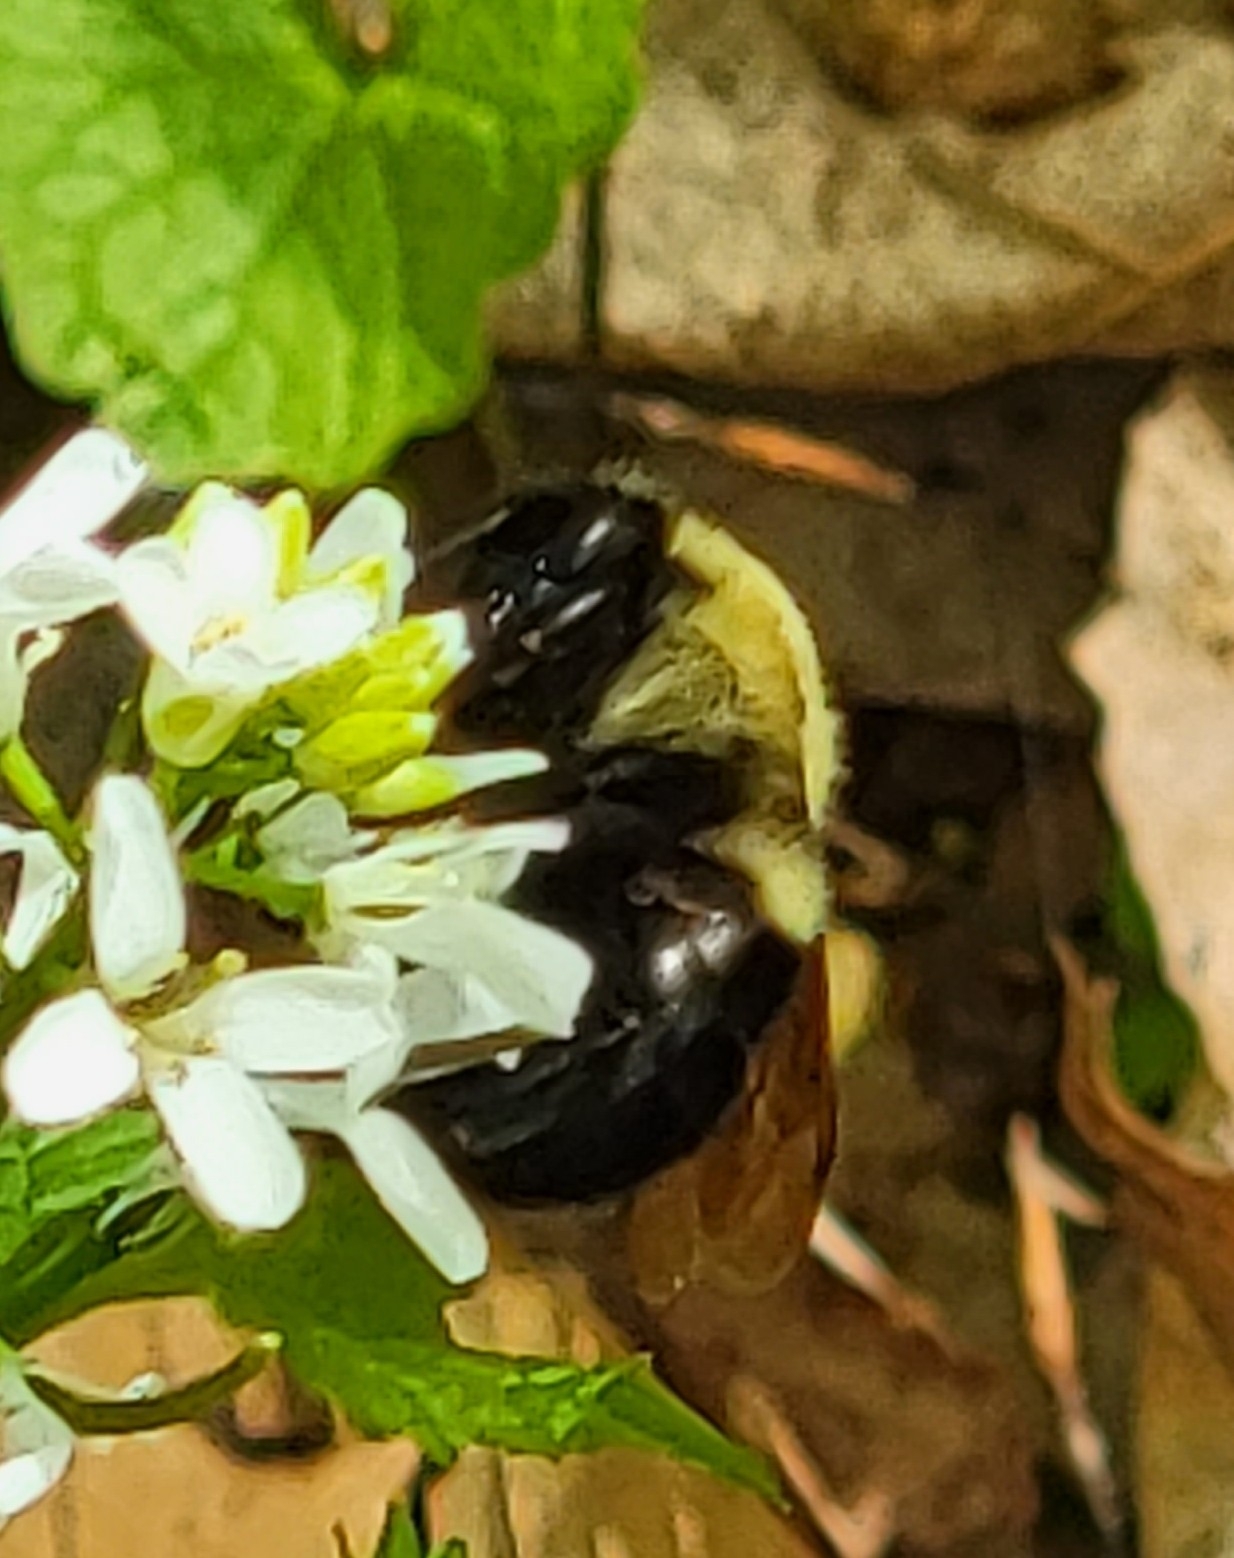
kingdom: Animalia
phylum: Arthropoda
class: Insecta
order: Hymenoptera
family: Apidae
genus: Bombus
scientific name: Bombus impatiens
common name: Common eastern bumble bee
